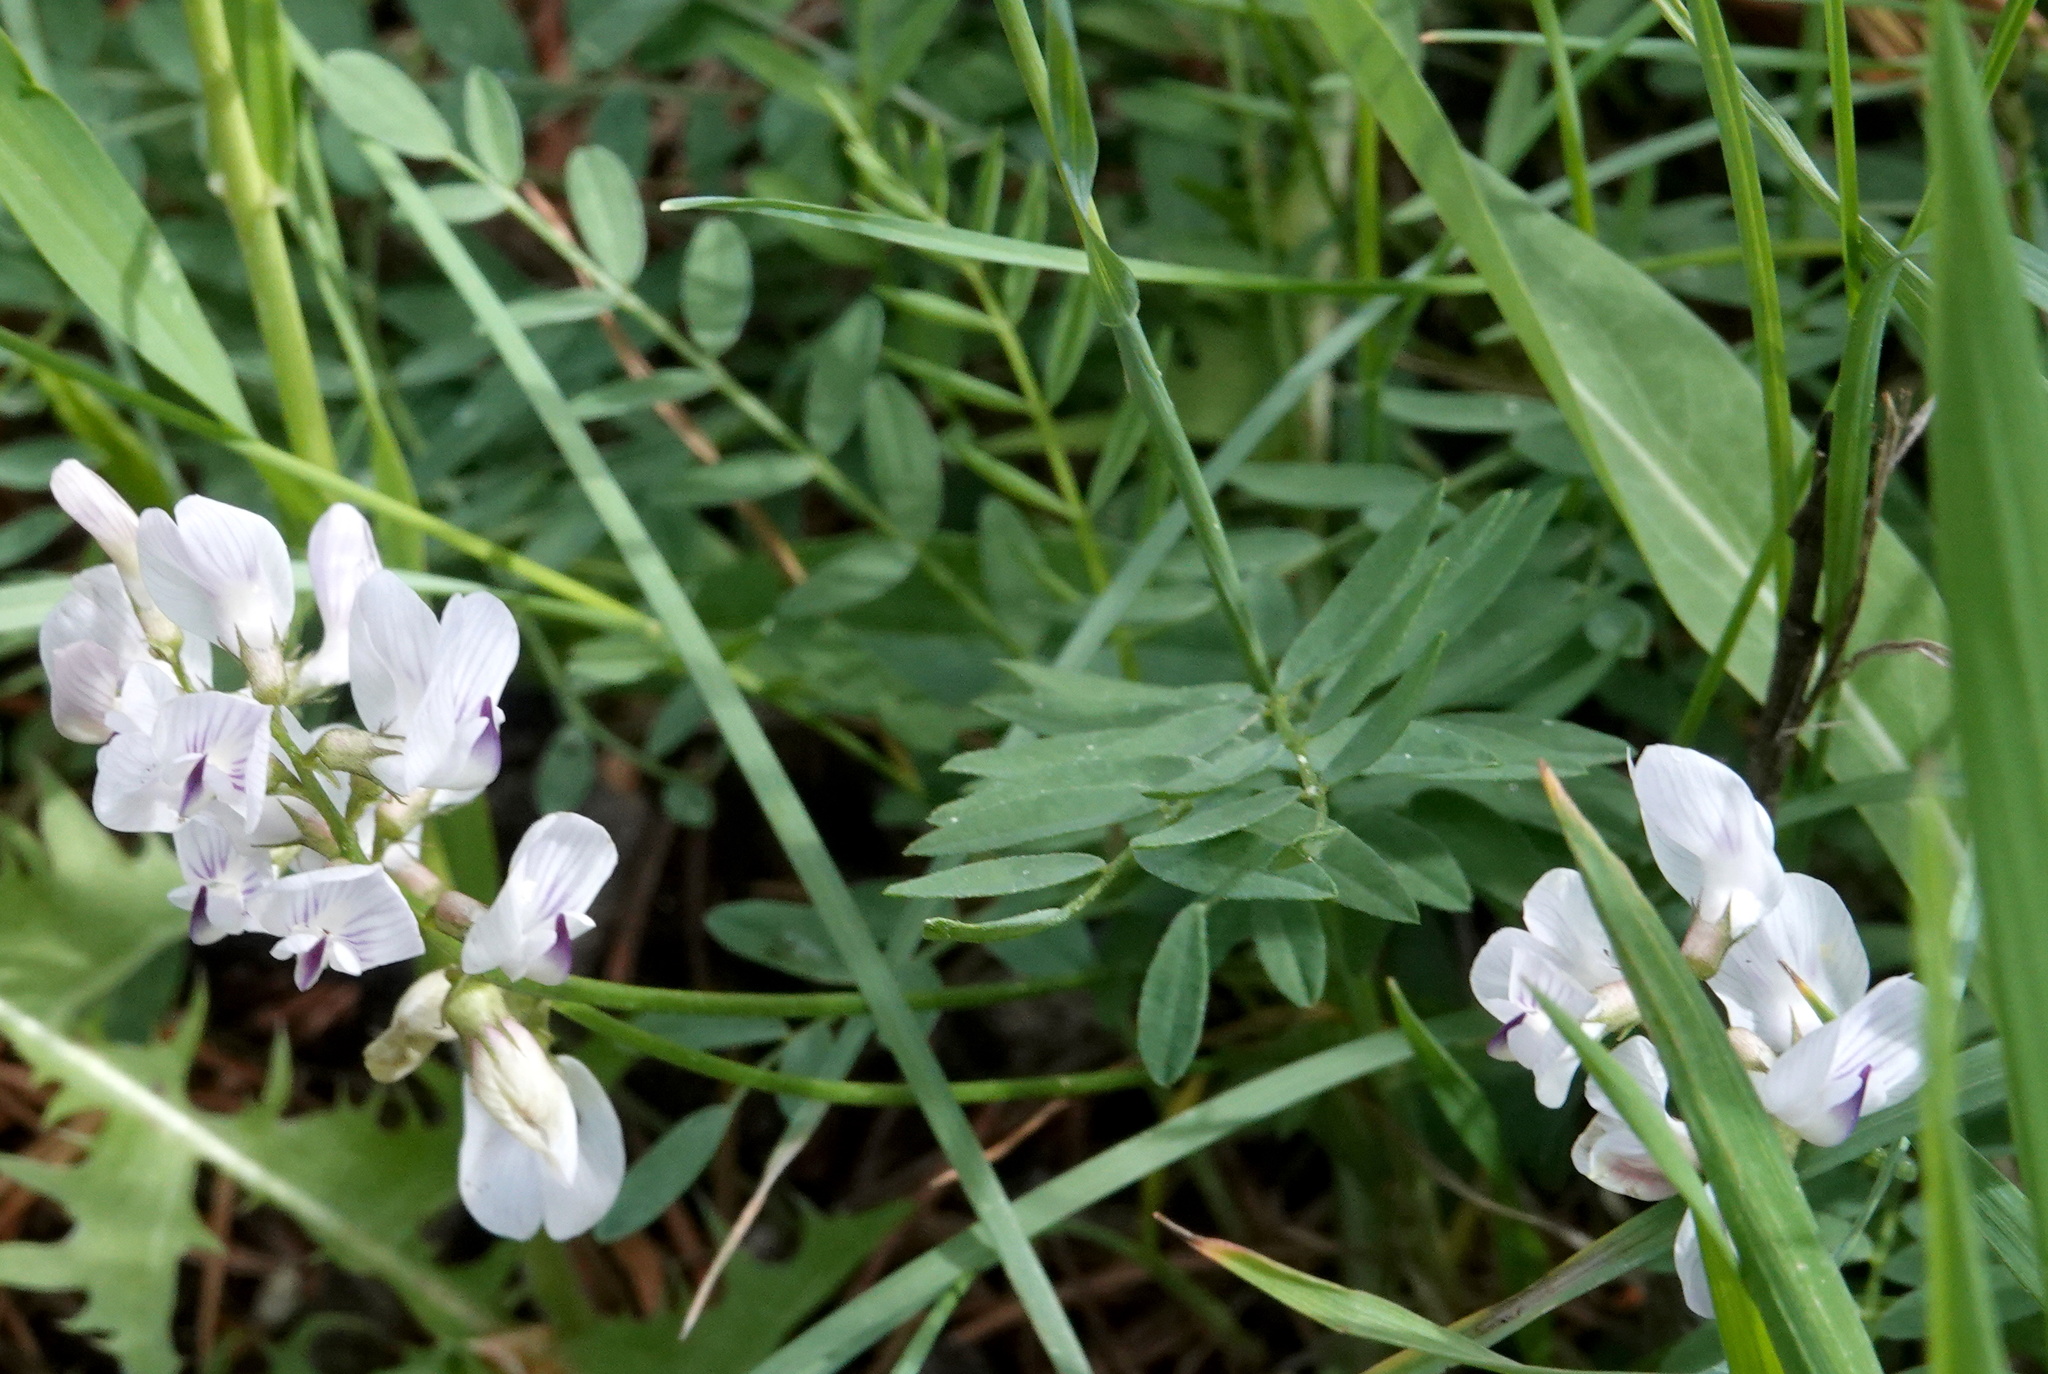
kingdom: Plantae
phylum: Tracheophyta
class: Magnoliopsida
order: Fabales
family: Fabaceae
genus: Astragalus
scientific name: Astragalus miser
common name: Timber milkvetch
